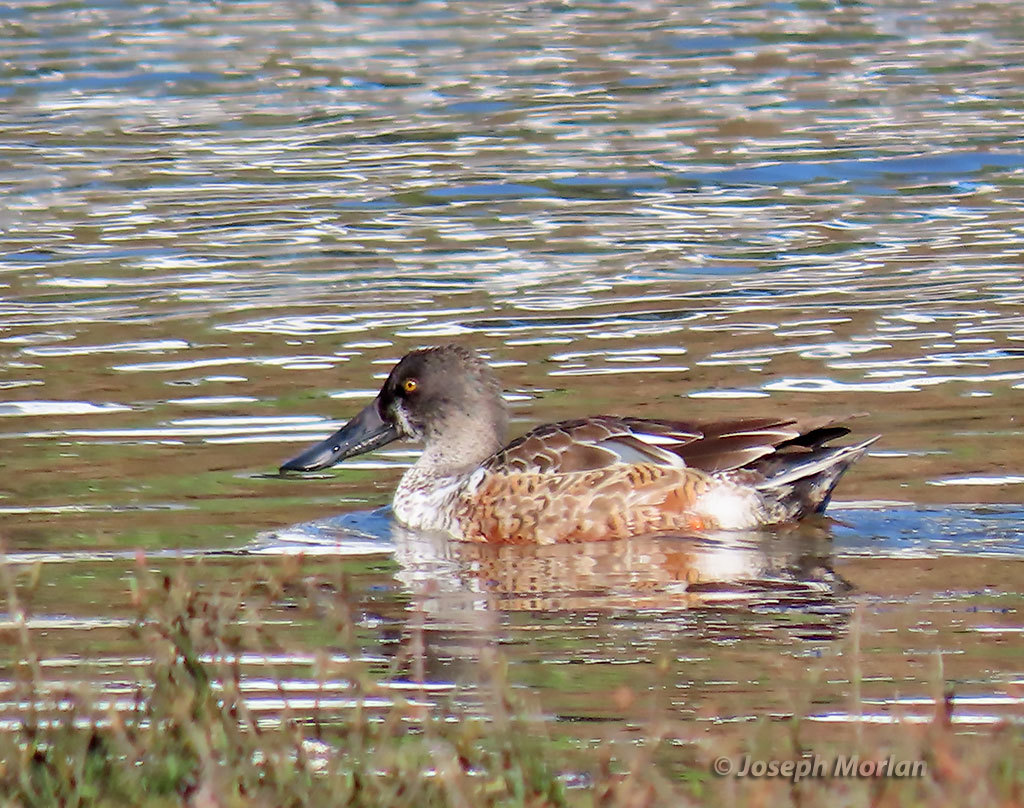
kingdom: Animalia
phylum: Chordata
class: Aves
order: Anseriformes
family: Anatidae
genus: Spatula
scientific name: Spatula clypeata
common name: Northern shoveler
